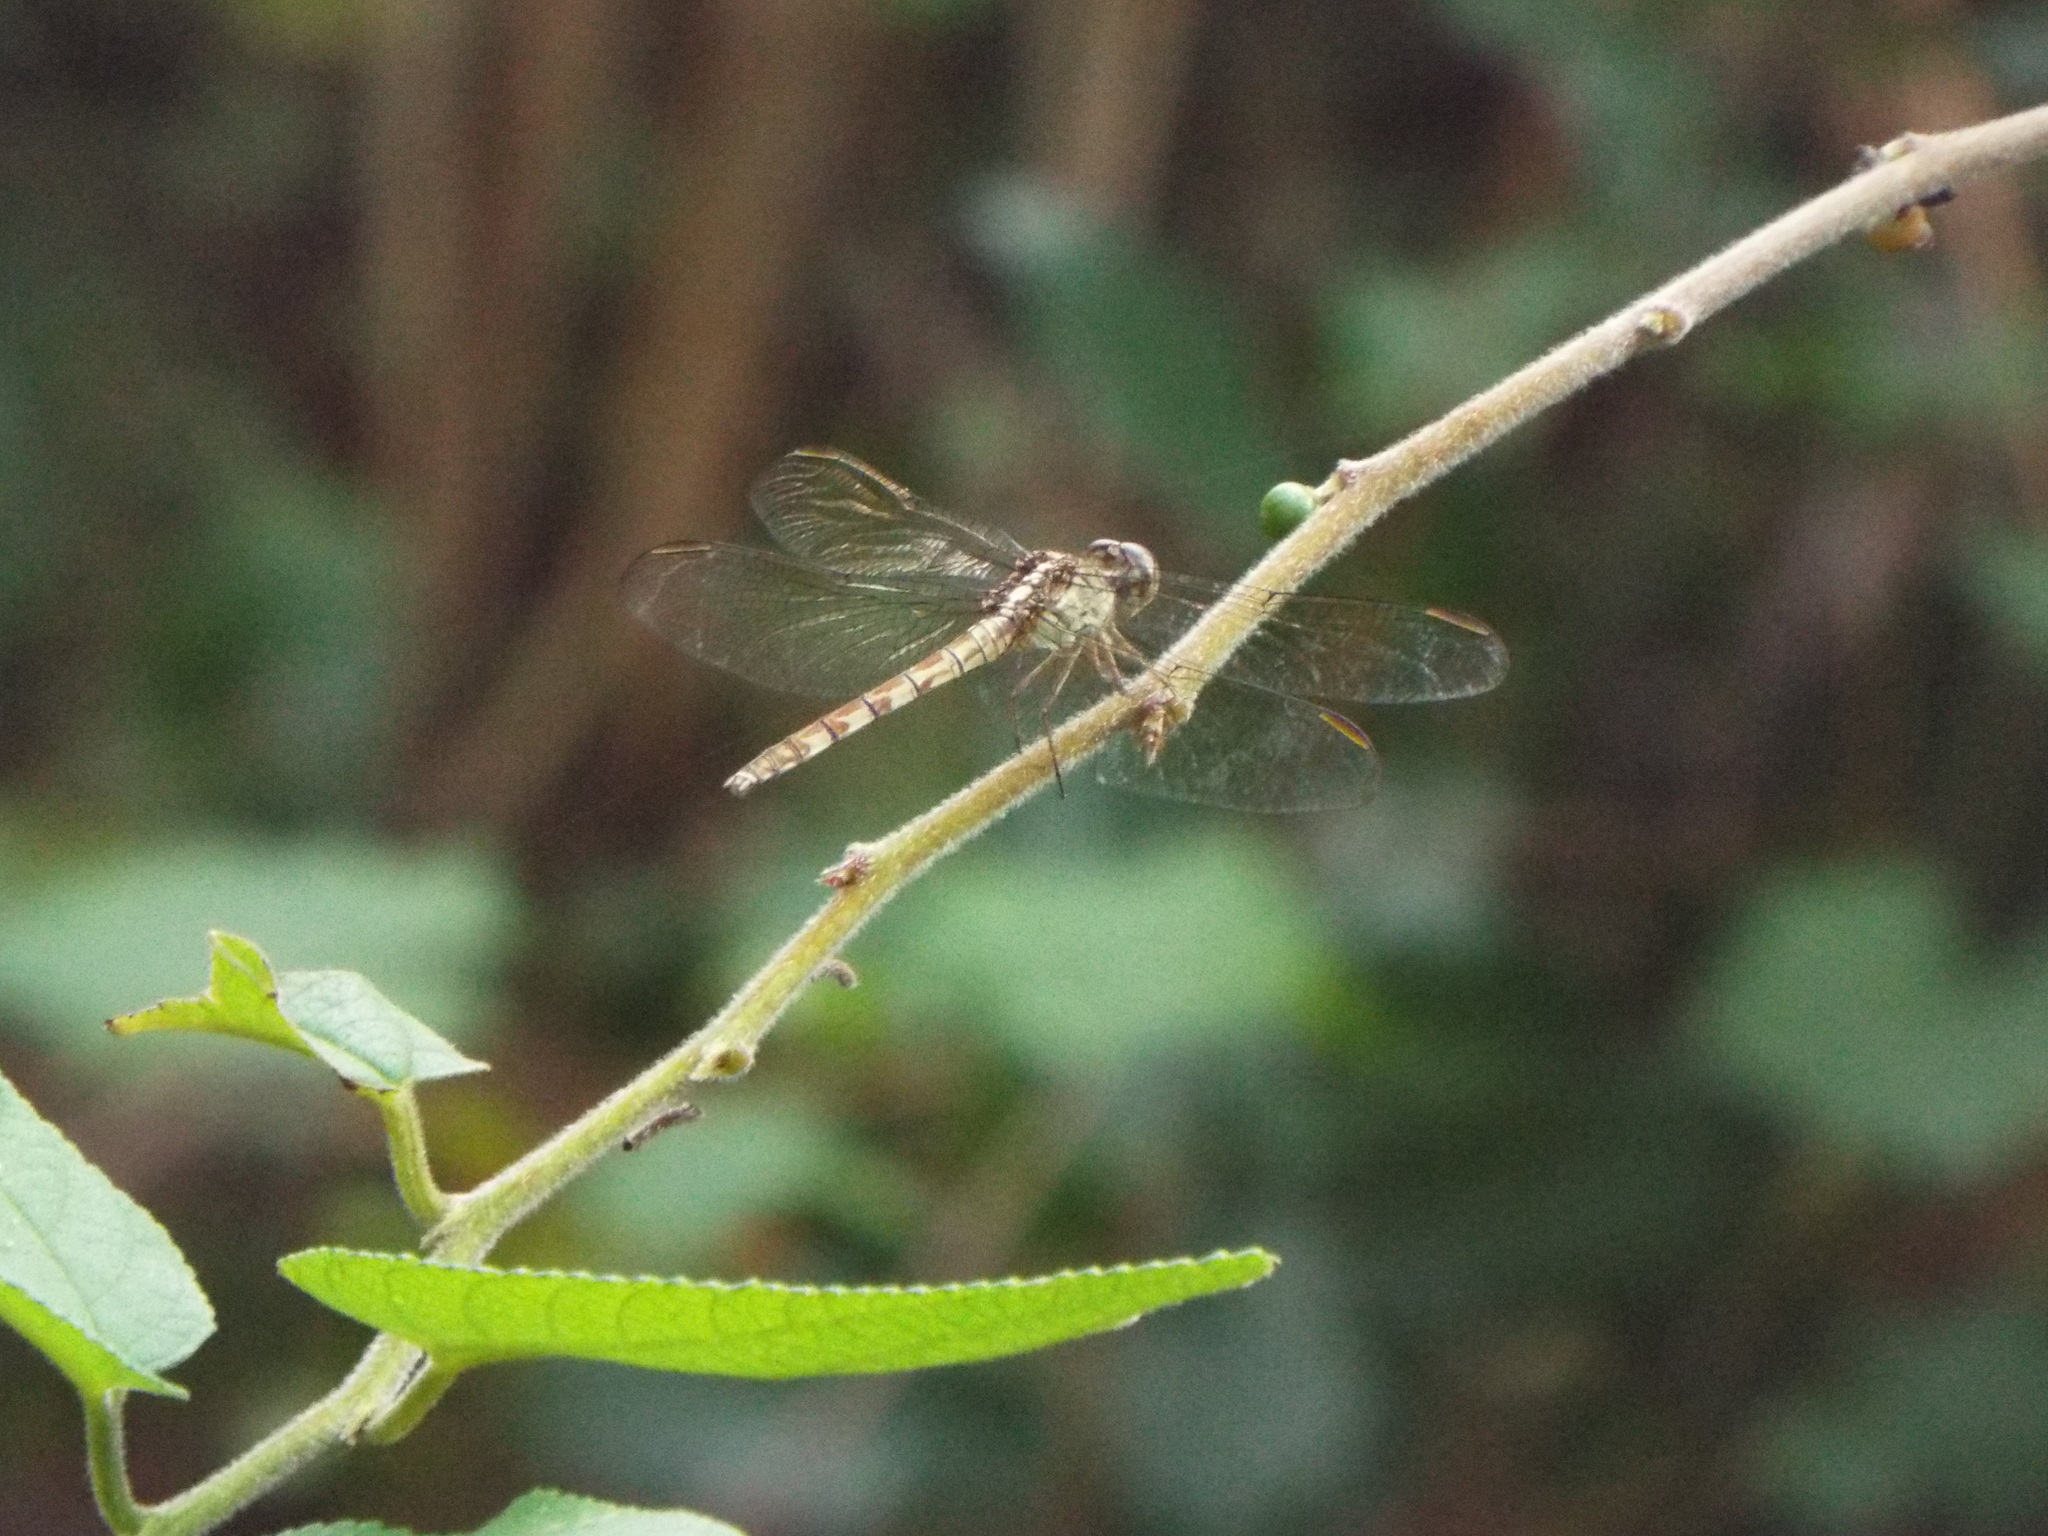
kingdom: Animalia
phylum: Arthropoda
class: Insecta
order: Odonata
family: Libellulidae
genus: Erythrodiplax
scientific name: Erythrodiplax umbrata
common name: Band-winged dragonlet
